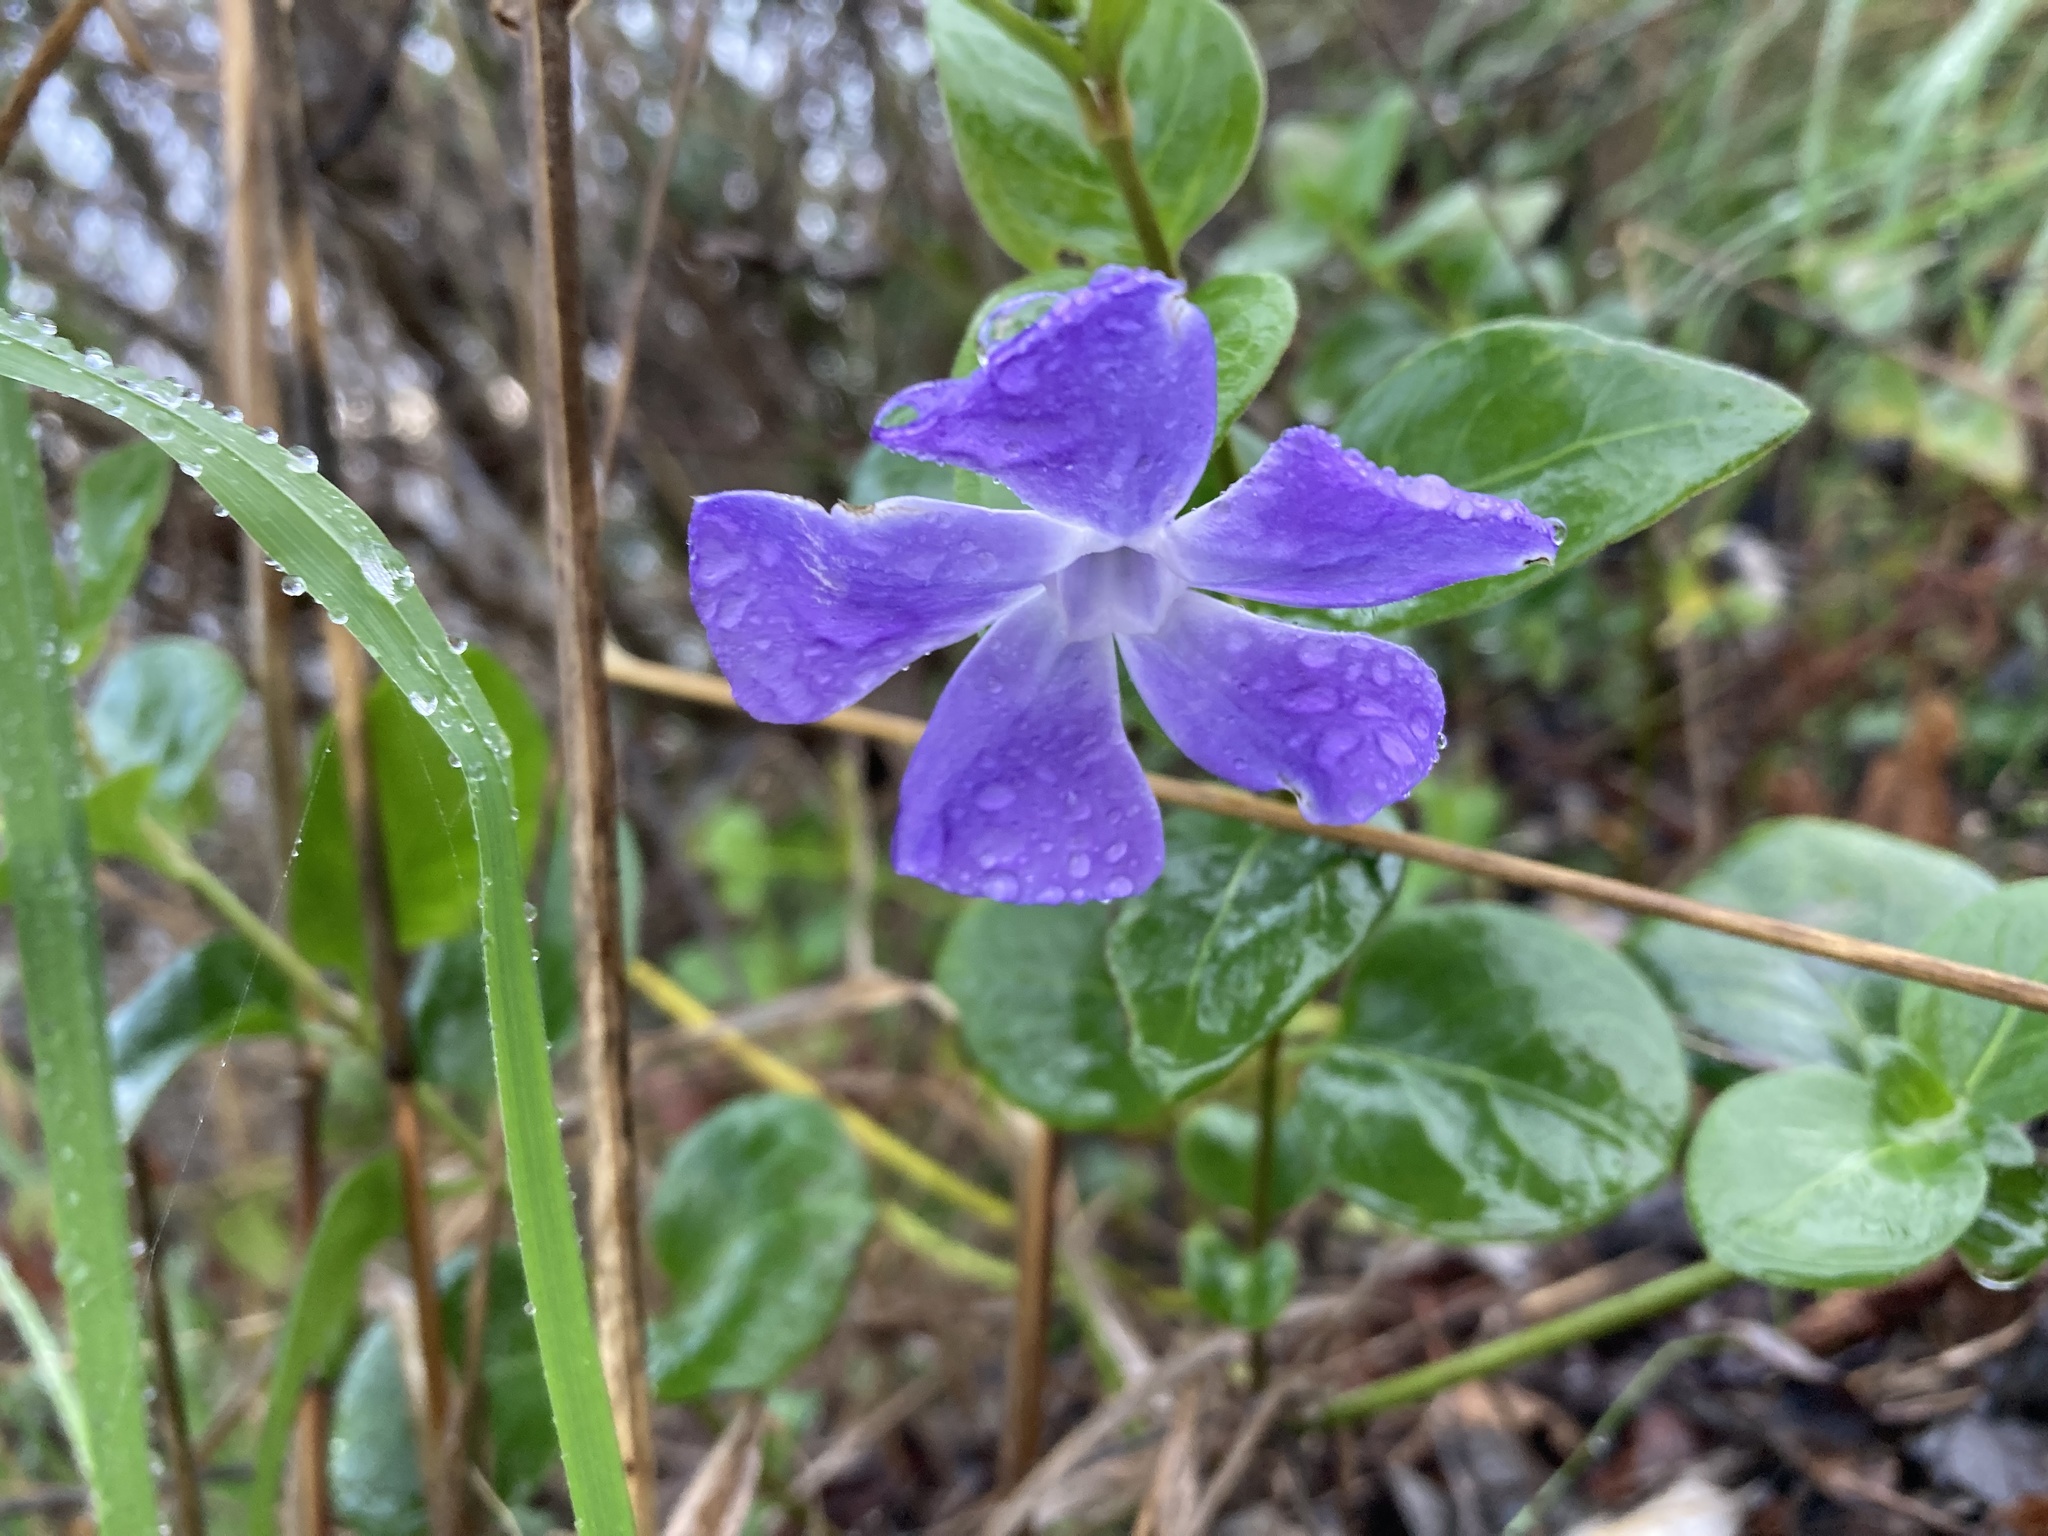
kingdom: Plantae
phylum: Tracheophyta
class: Magnoliopsida
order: Gentianales
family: Apocynaceae
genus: Vinca
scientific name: Vinca major
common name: Greater periwinkle
